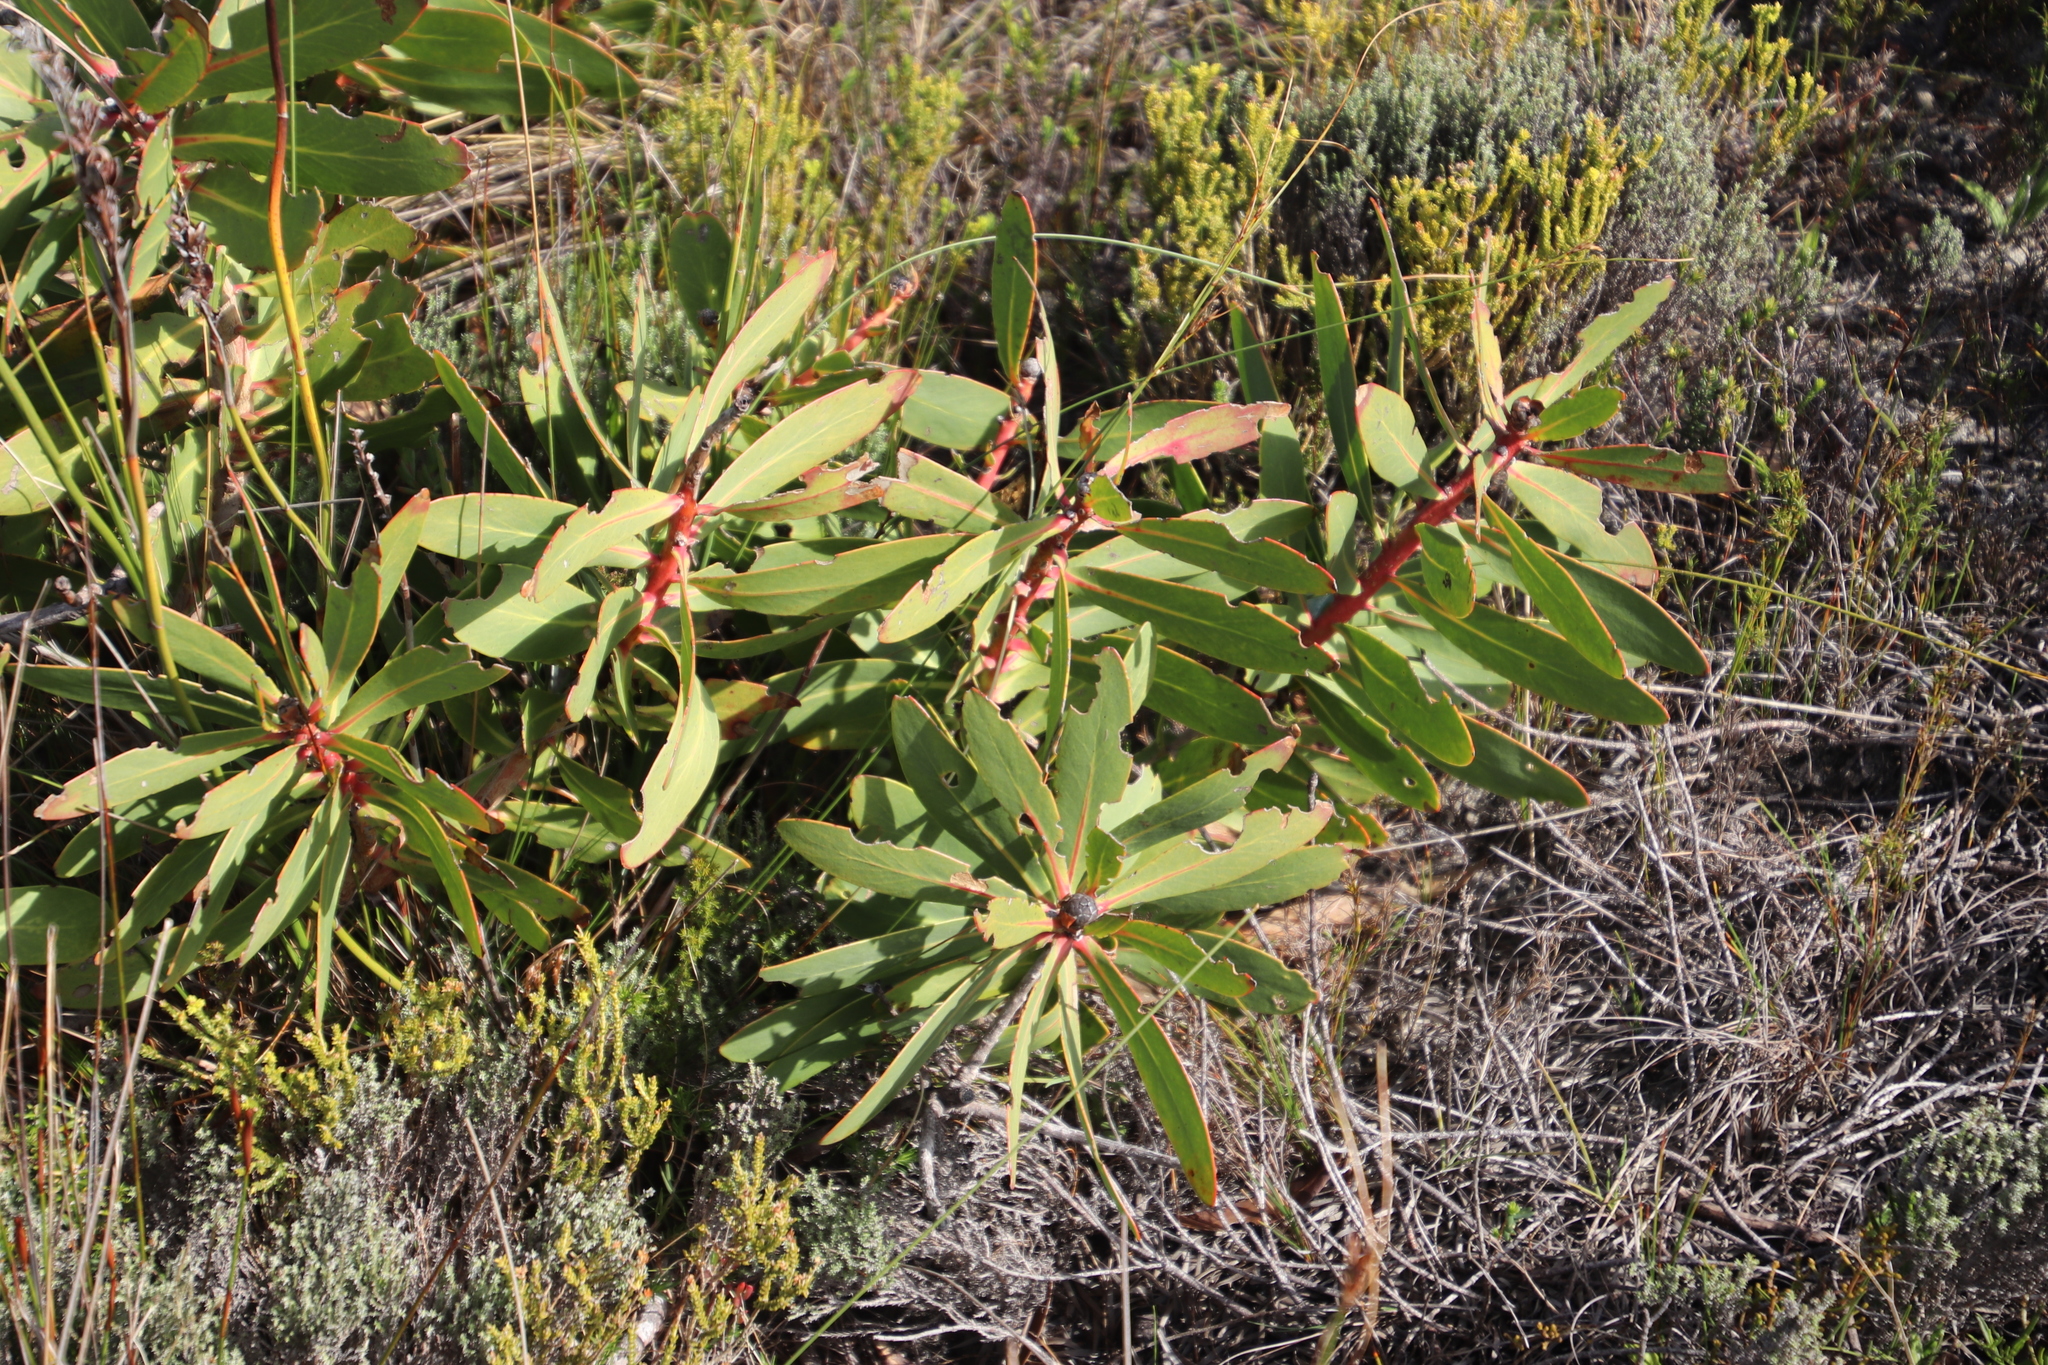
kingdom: Plantae
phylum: Tracheophyta
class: Magnoliopsida
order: Proteales
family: Proteaceae
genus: Protea
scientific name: Protea nitida
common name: Tree protea
